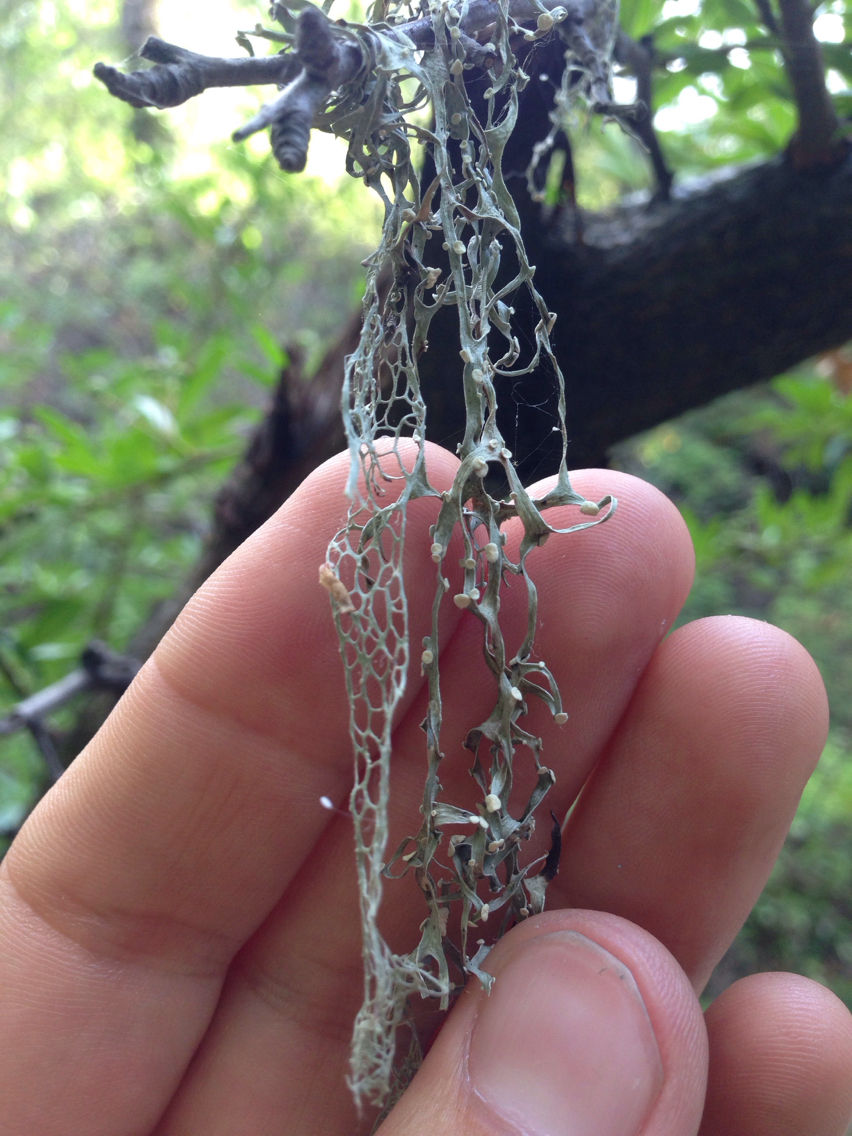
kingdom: Fungi
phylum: Ascomycota
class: Lecanoromycetes
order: Lecanorales
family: Ramalinaceae
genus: Ramalina
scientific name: Ramalina menziesii
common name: Lace lichen
